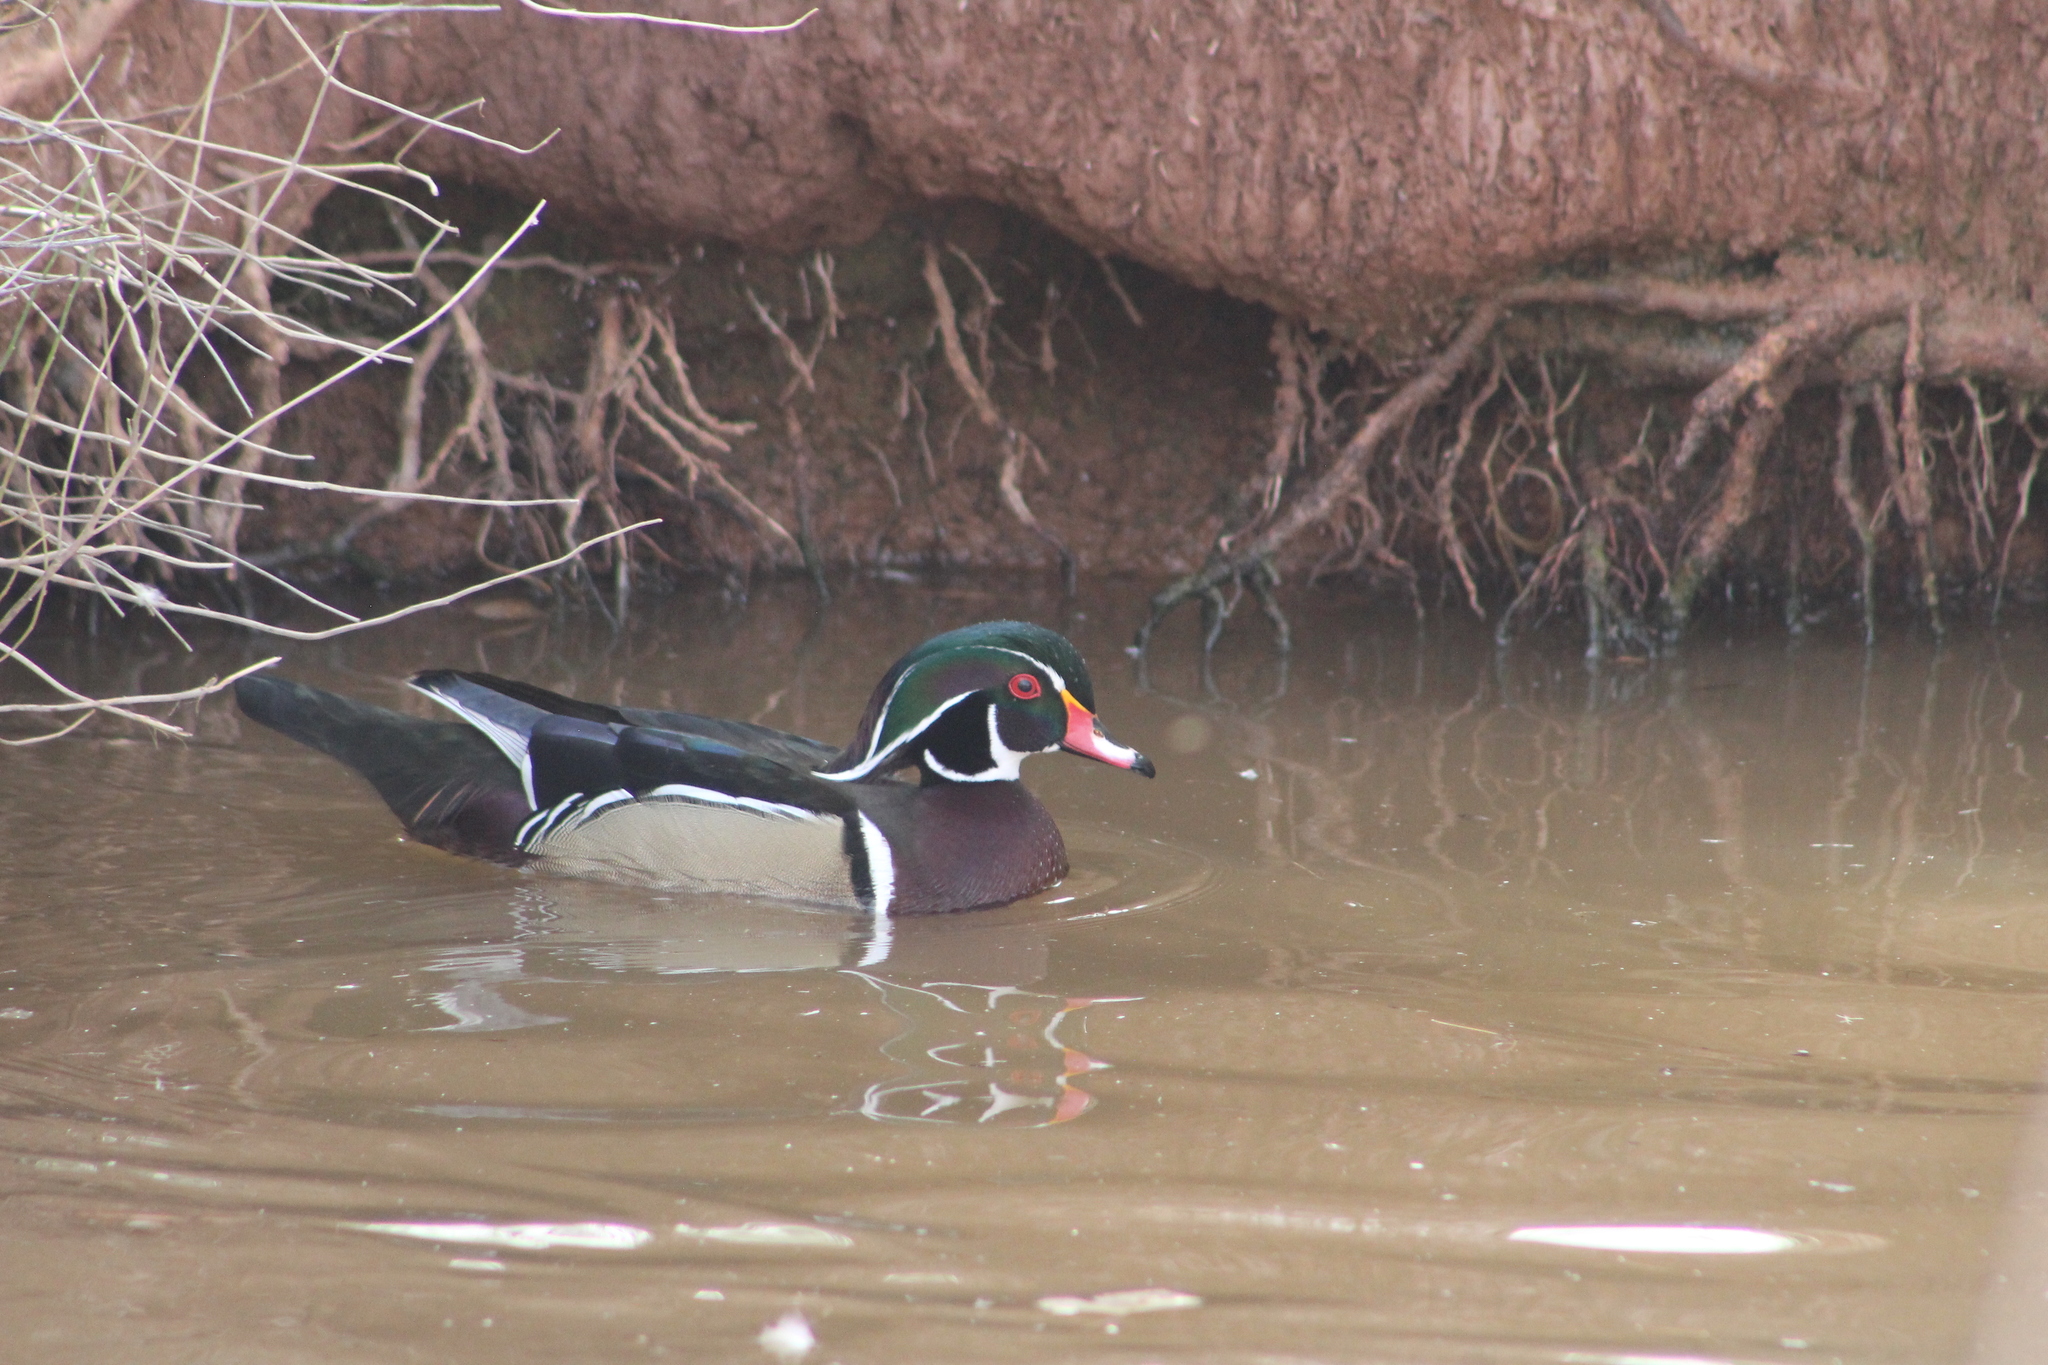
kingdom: Animalia
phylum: Chordata
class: Aves
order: Anseriformes
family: Anatidae
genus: Aix
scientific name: Aix sponsa
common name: Wood duck
